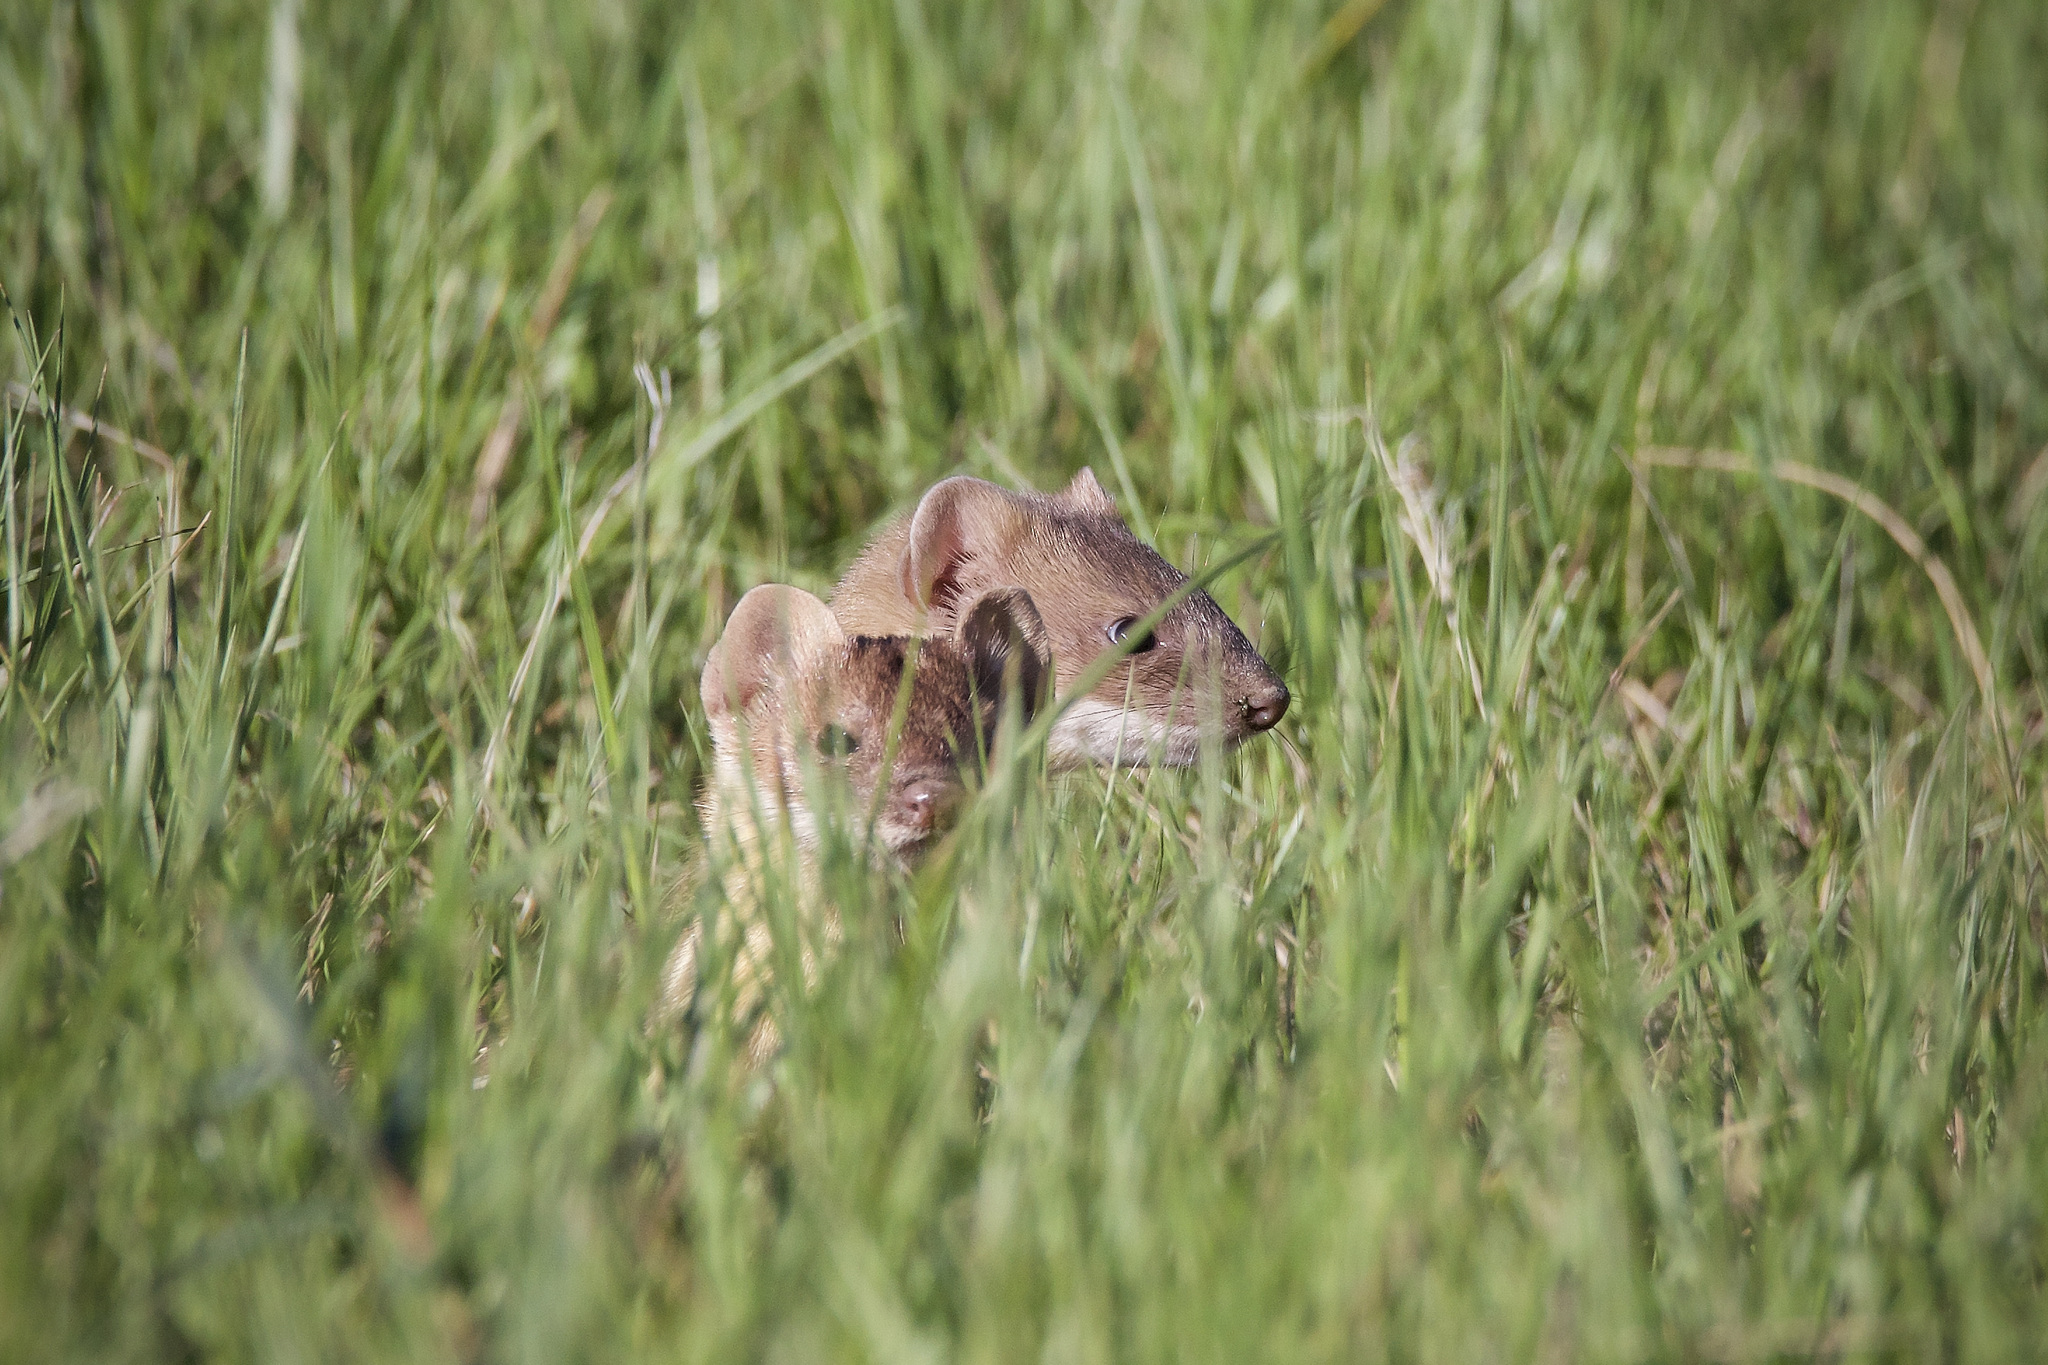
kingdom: Animalia
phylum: Chordata
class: Mammalia
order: Carnivora
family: Mustelidae
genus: Mustela
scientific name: Mustela
